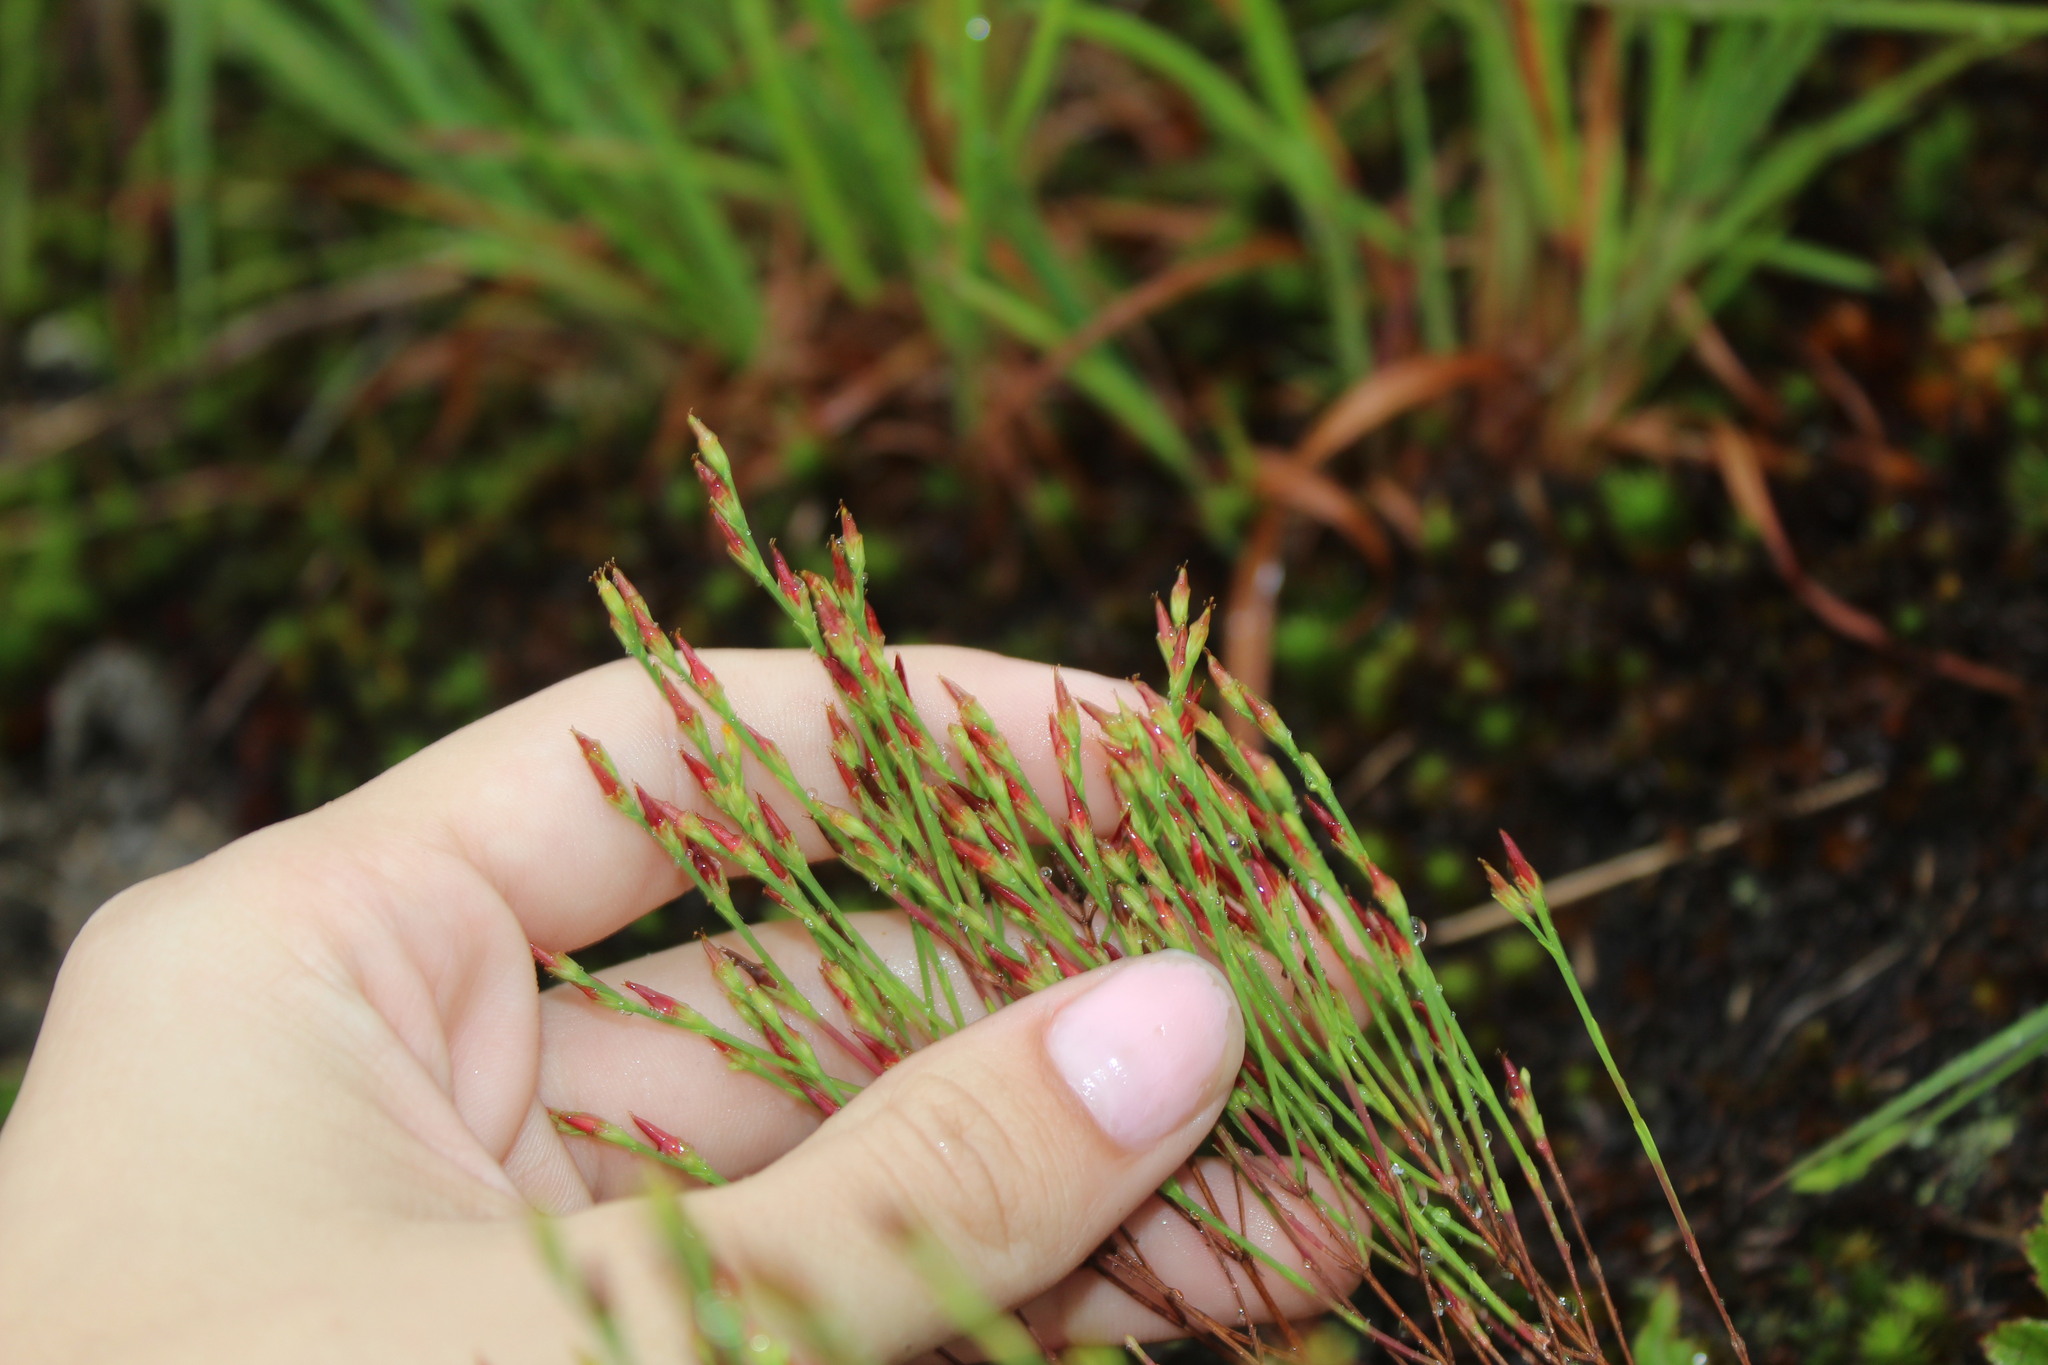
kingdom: Plantae
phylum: Tracheophyta
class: Magnoliopsida
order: Malpighiales
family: Hypericaceae
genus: Hypericum
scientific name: Hypericum gentianoides
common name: Gentian-leaved st. john's-wort
